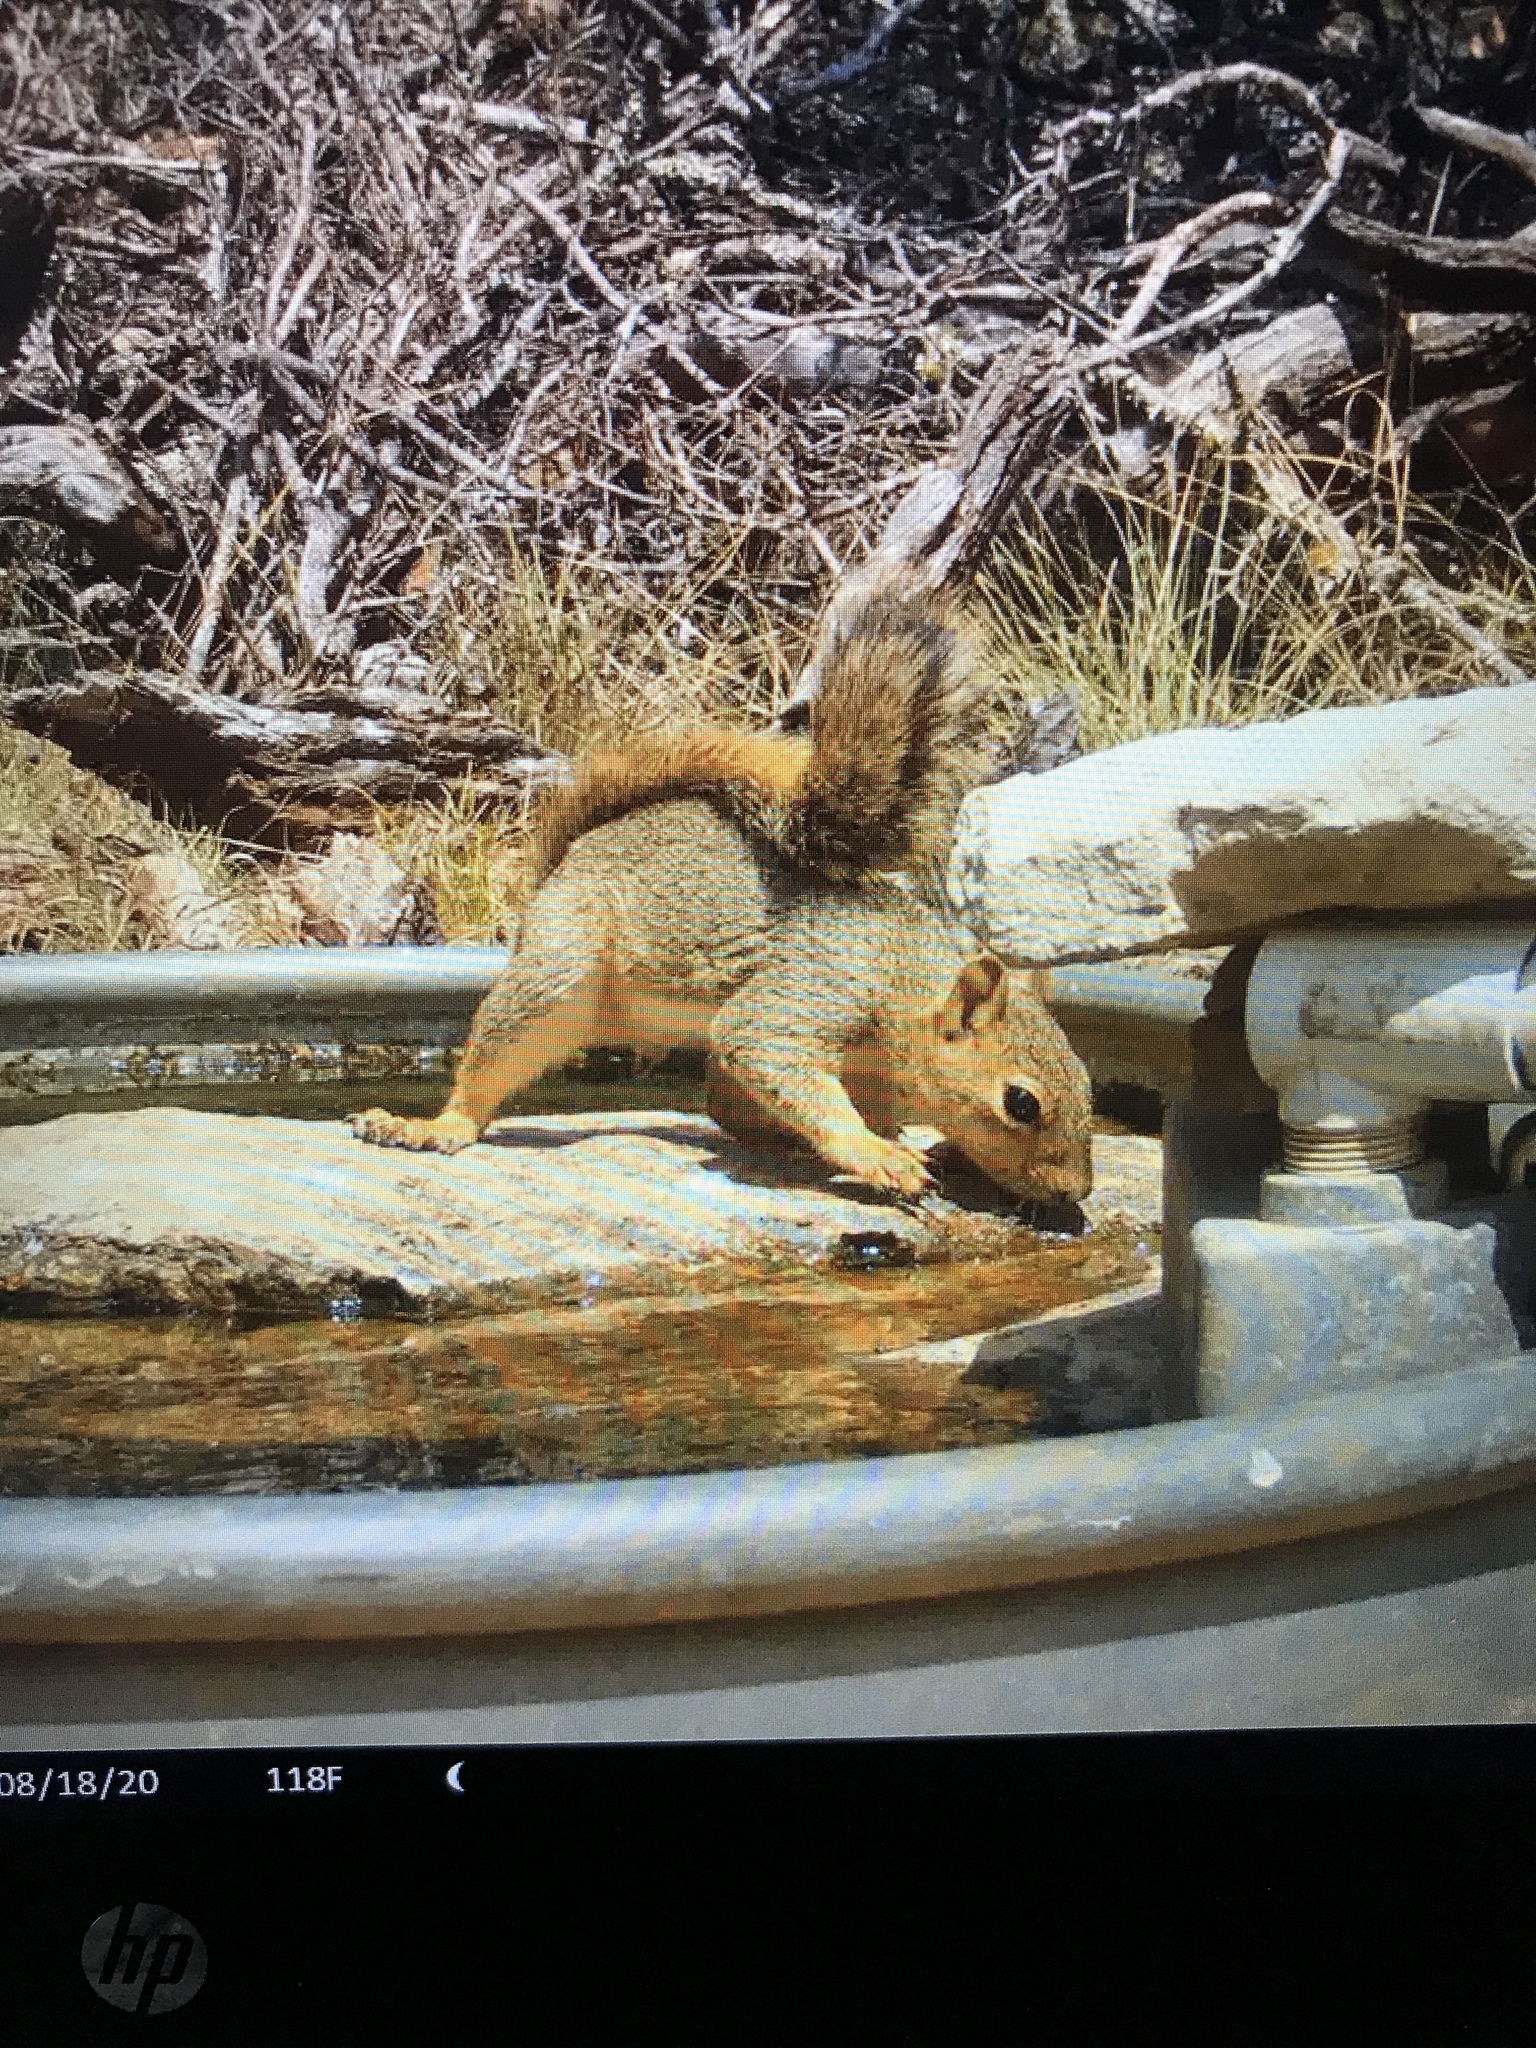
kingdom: Animalia
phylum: Chordata
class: Mammalia
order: Rodentia
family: Sciuridae
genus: Sciurus
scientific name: Sciurus niger
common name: Fox squirrel
